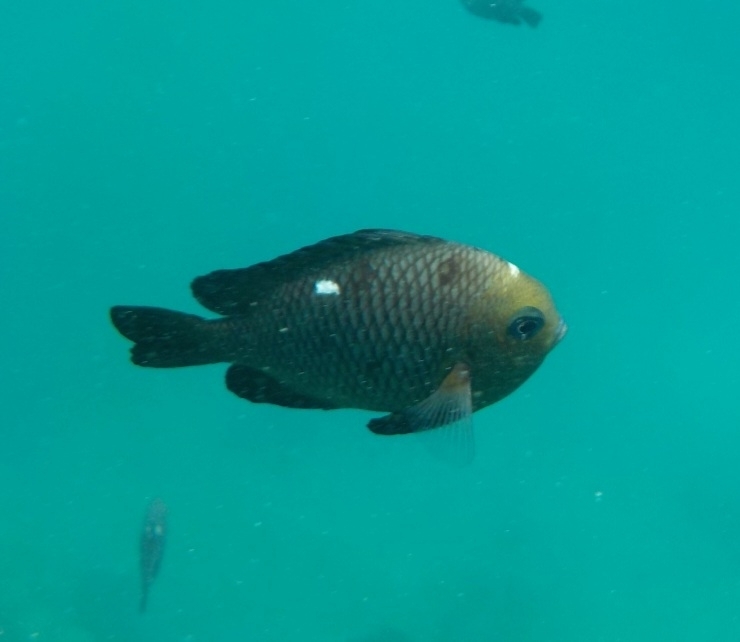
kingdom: Animalia
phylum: Chordata
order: Perciformes
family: Pomacentridae
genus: Dascyllus
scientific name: Dascyllus trimaculatus
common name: Threespot dascyllus
